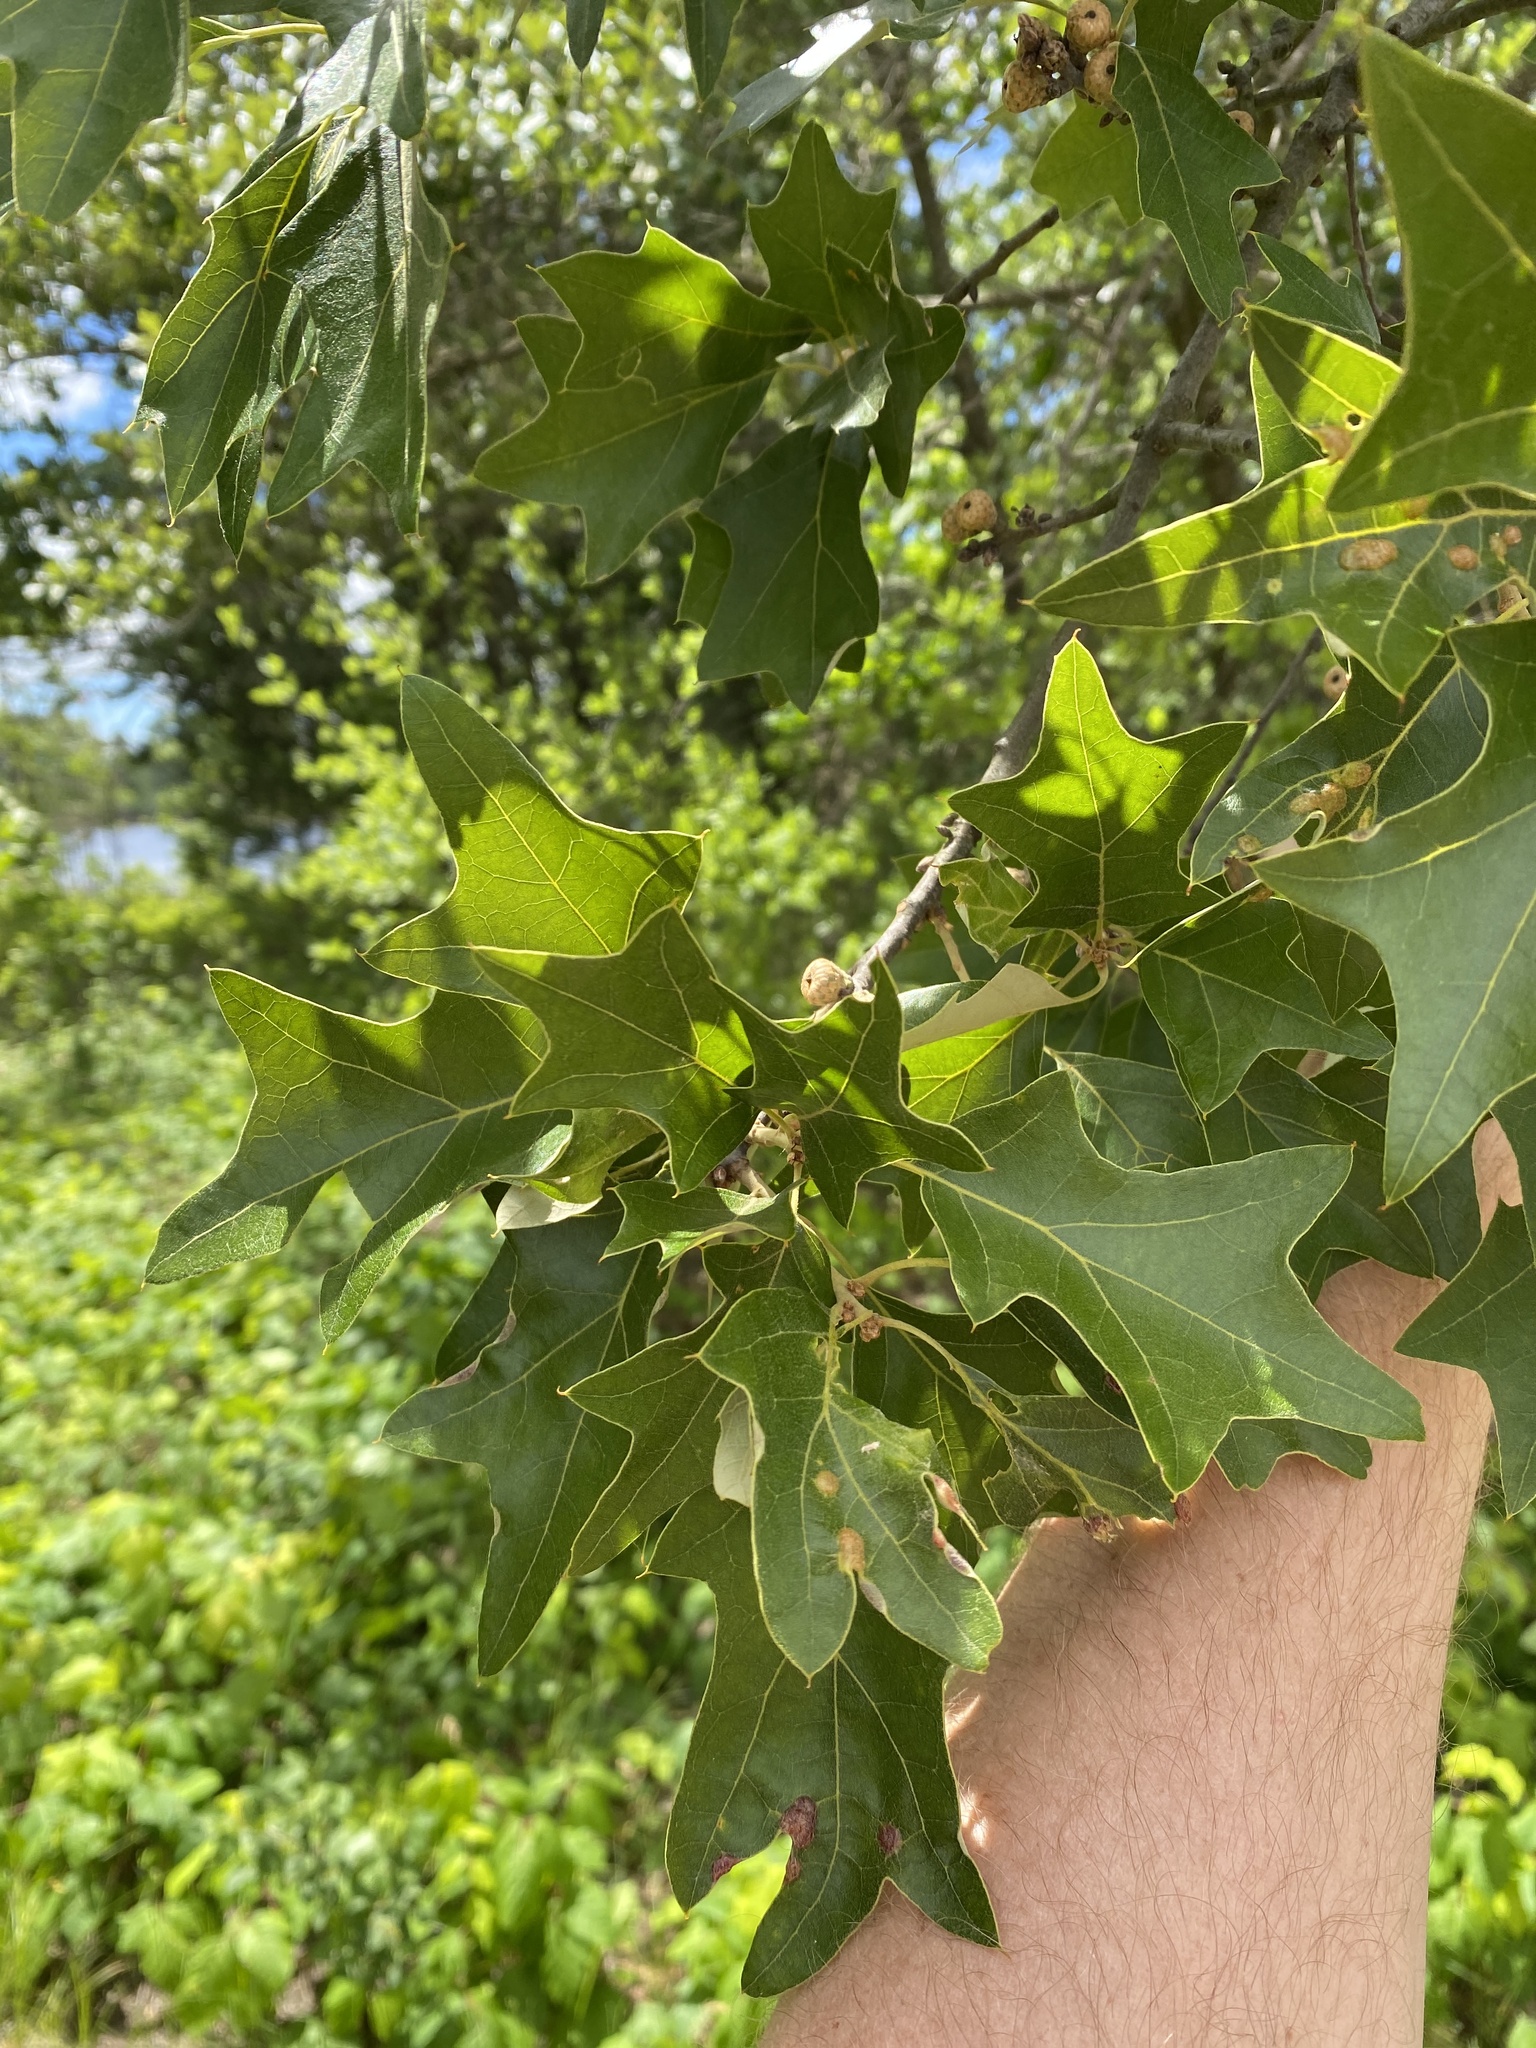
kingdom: Plantae
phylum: Tracheophyta
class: Magnoliopsida
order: Fagales
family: Fagaceae
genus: Quercus
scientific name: Quercus ilicifolia
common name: Bear oak
